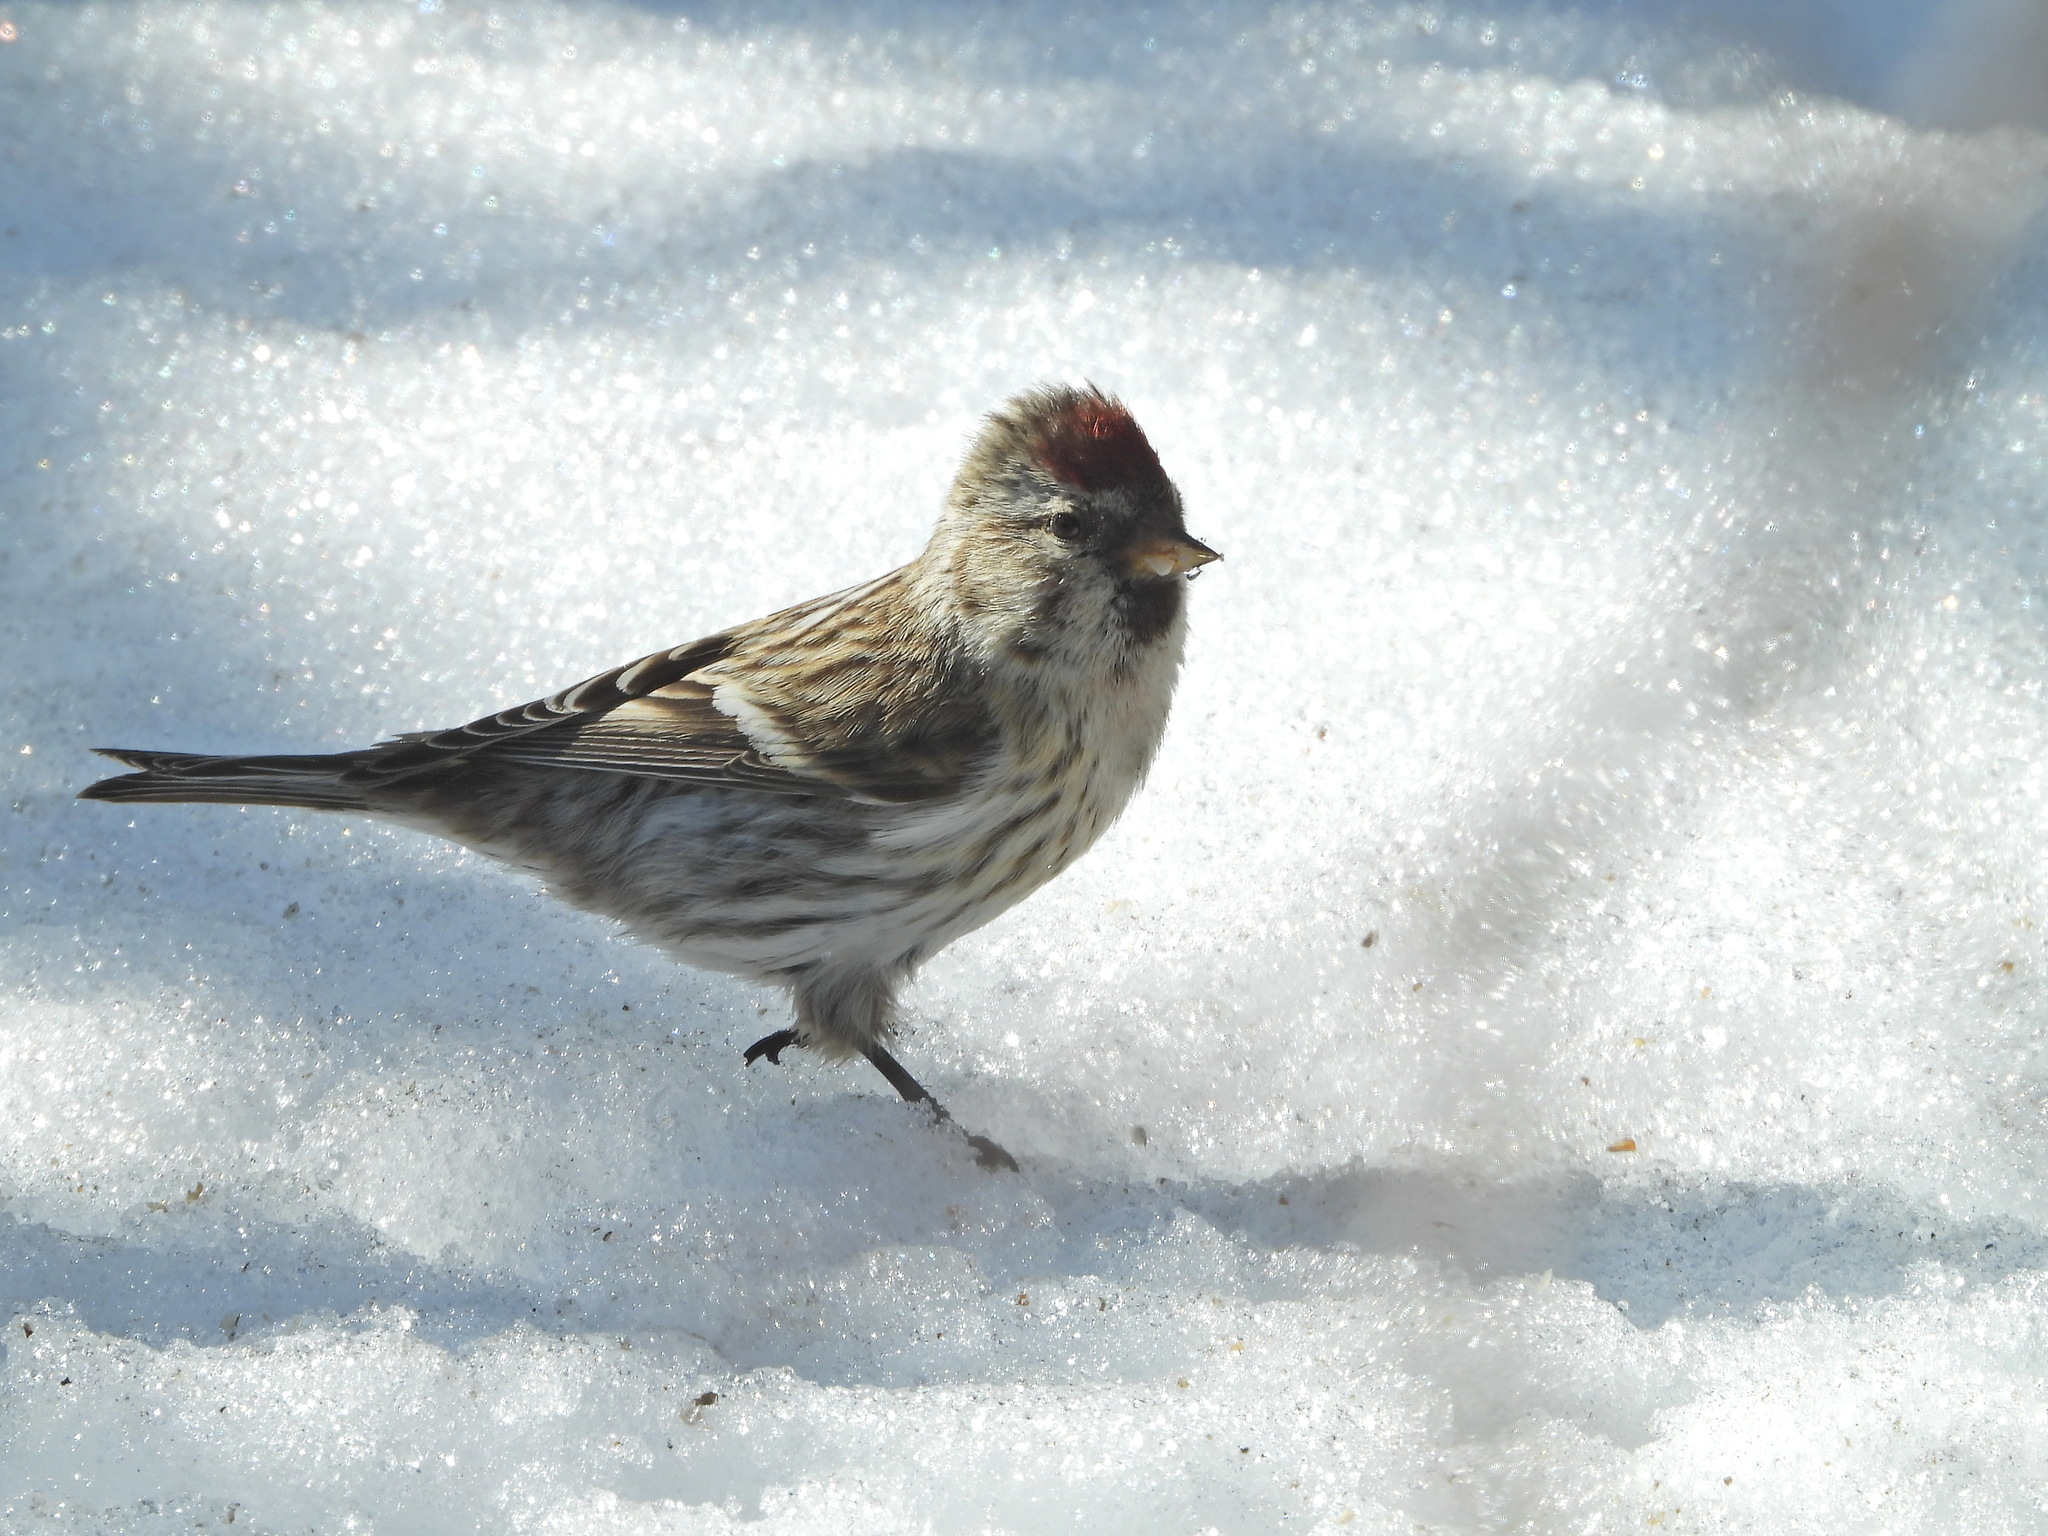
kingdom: Animalia
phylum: Chordata
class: Aves
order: Passeriformes
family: Fringillidae
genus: Acanthis
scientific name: Acanthis flammea
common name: Common redpoll
